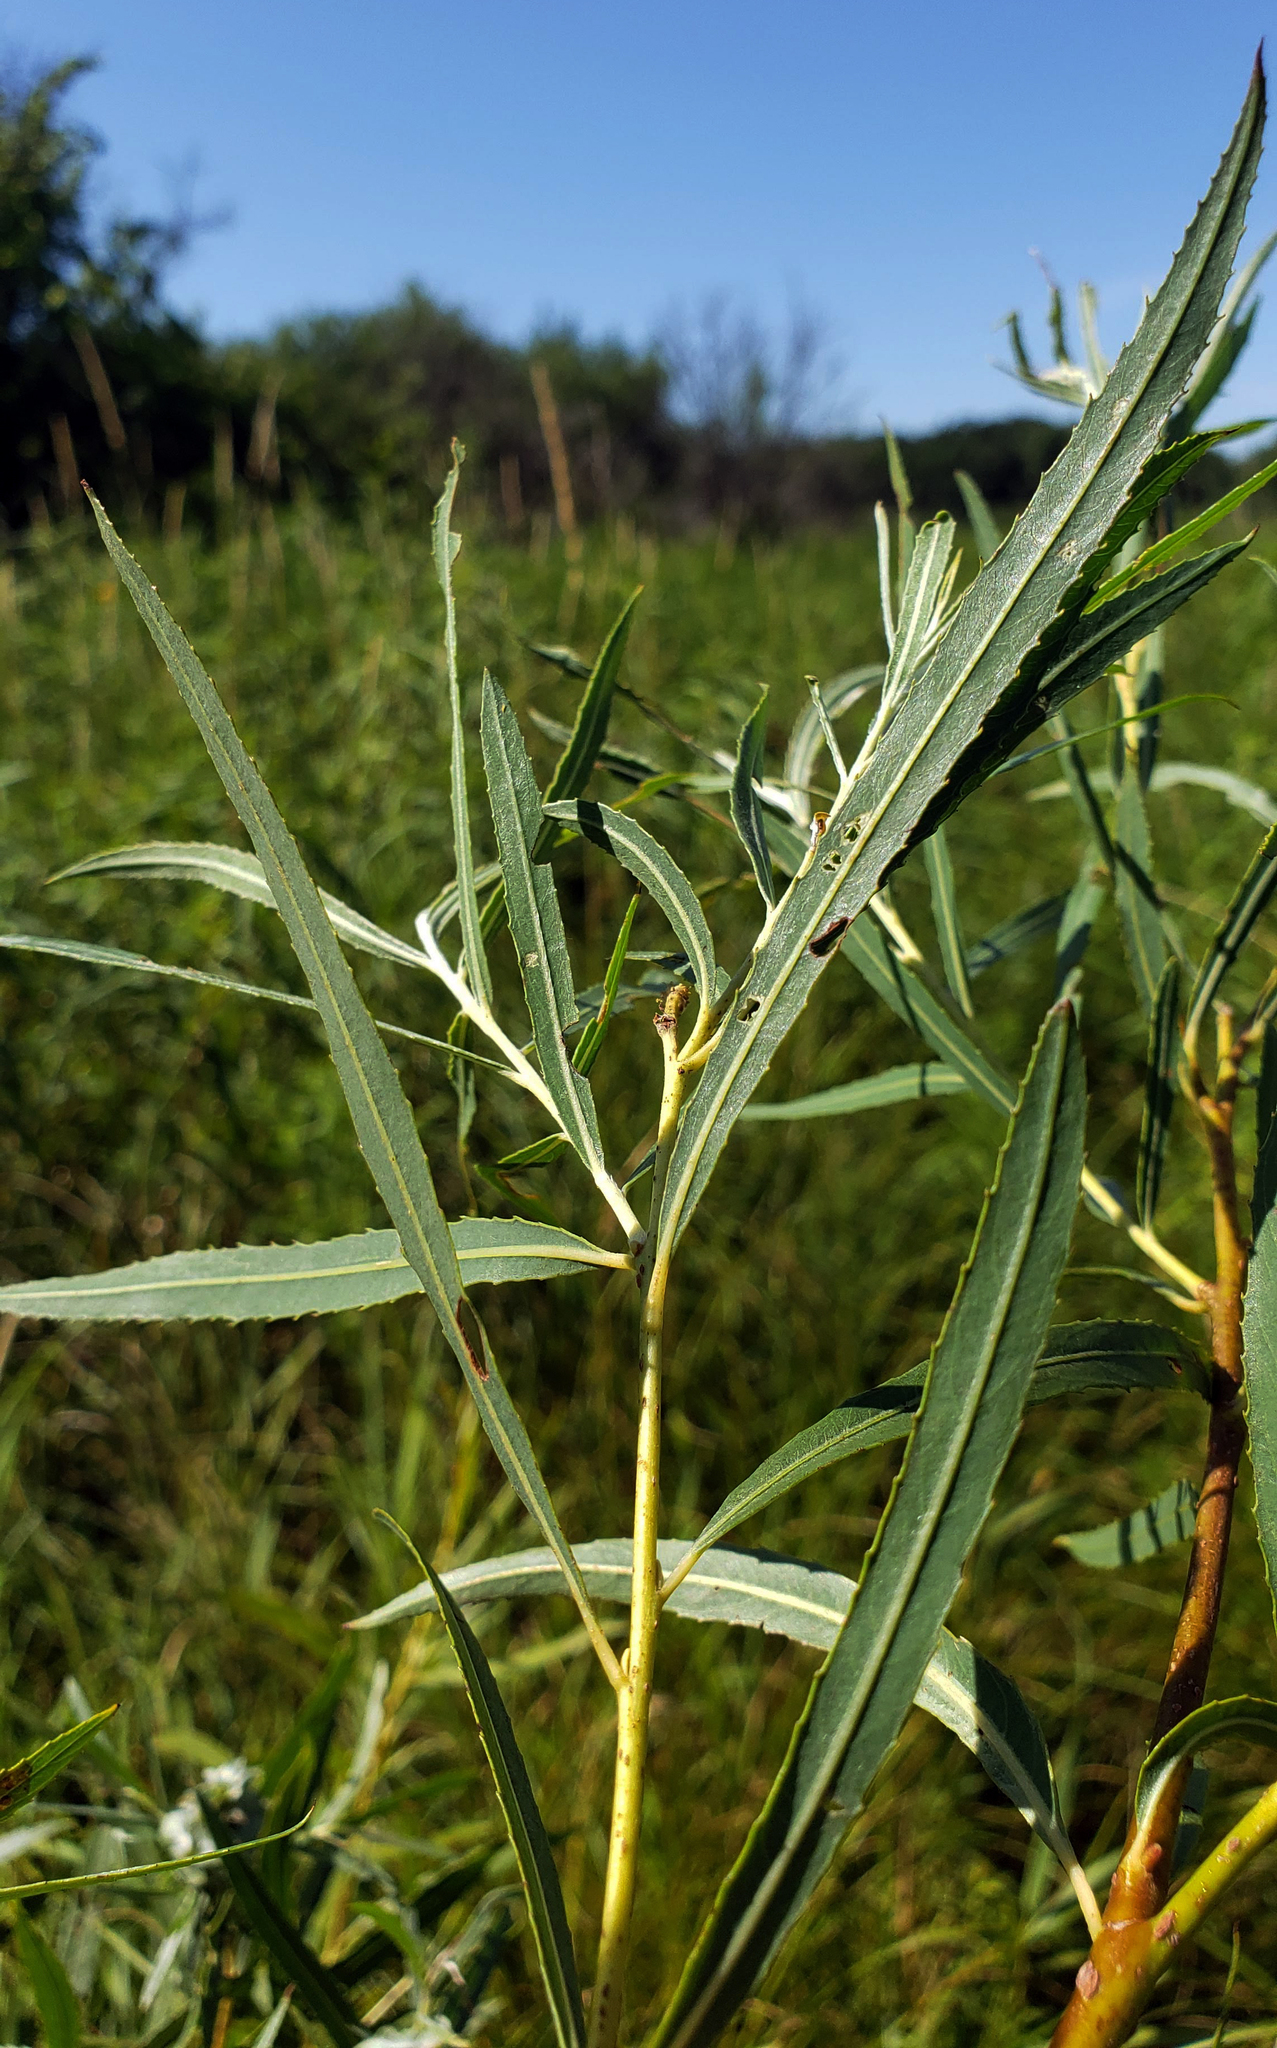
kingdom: Plantae
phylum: Tracheophyta
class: Magnoliopsida
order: Malpighiales
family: Salicaceae
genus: Salix
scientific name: Salix interior
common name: Sandbar willow
